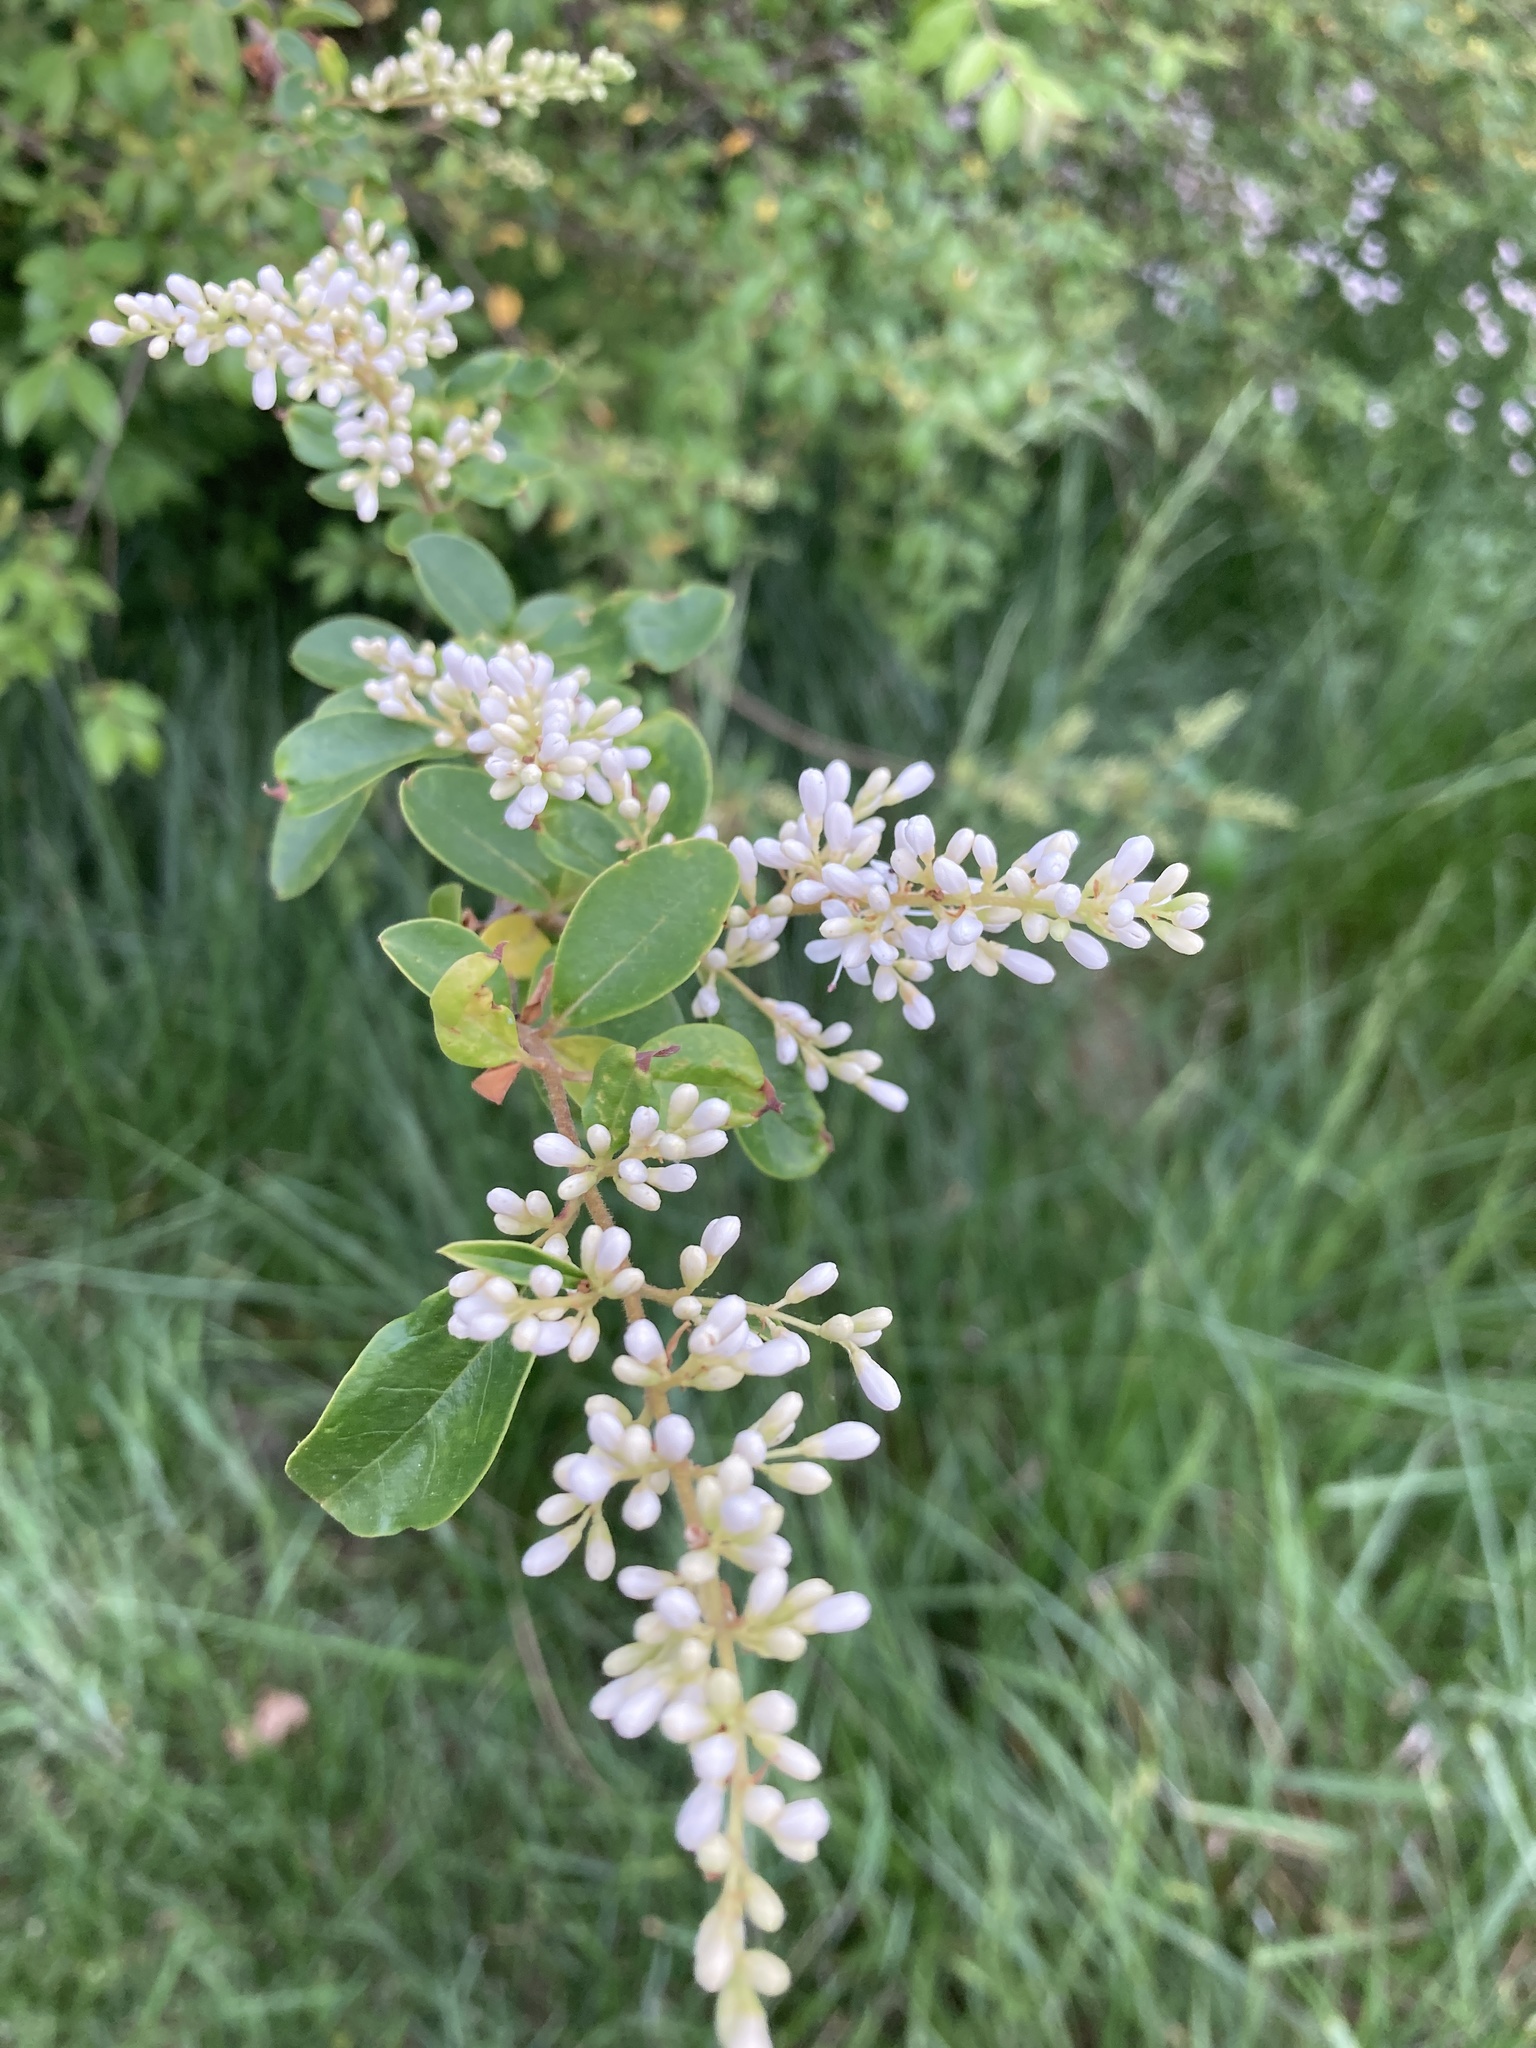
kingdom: Plantae
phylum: Tracheophyta
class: Magnoliopsida
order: Lamiales
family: Oleaceae
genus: Ligustrum
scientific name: Ligustrum sinense
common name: Chinese privet
